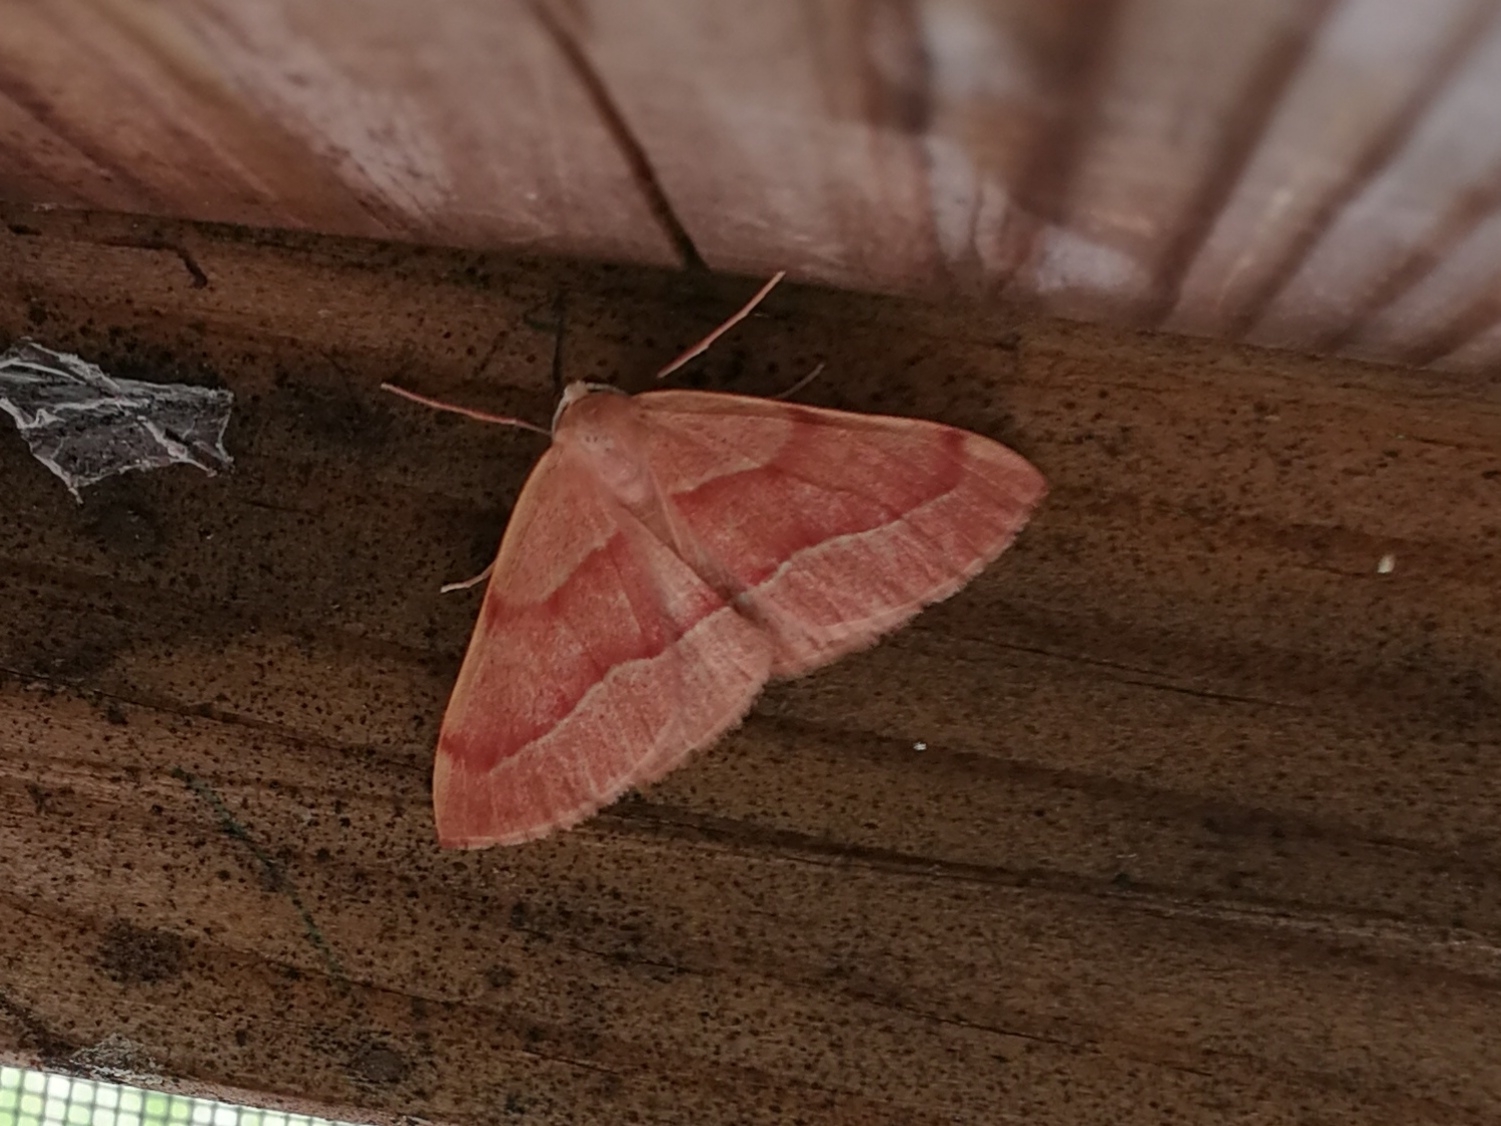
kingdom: Animalia
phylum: Arthropoda
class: Insecta
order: Lepidoptera
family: Geometridae
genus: Hylaea
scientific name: Hylaea fasciaria
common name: Barred red
